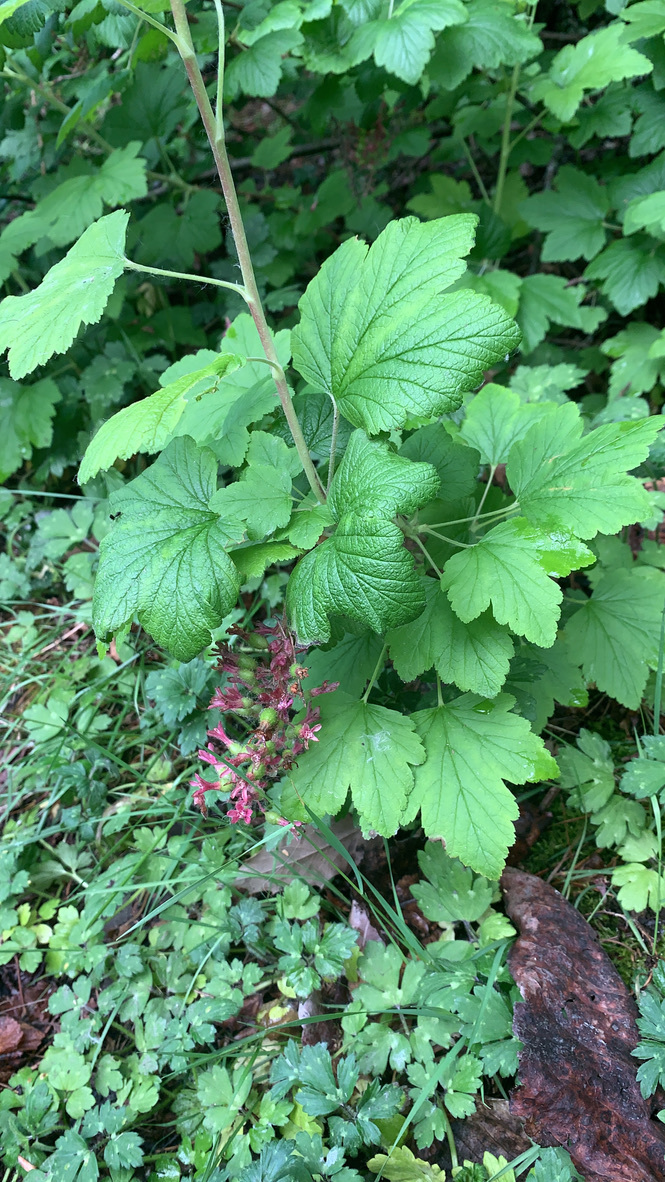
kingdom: Plantae
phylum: Tracheophyta
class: Magnoliopsida
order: Saxifragales
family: Grossulariaceae
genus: Ribes
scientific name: Ribes sanguineum
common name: Flowering currant
